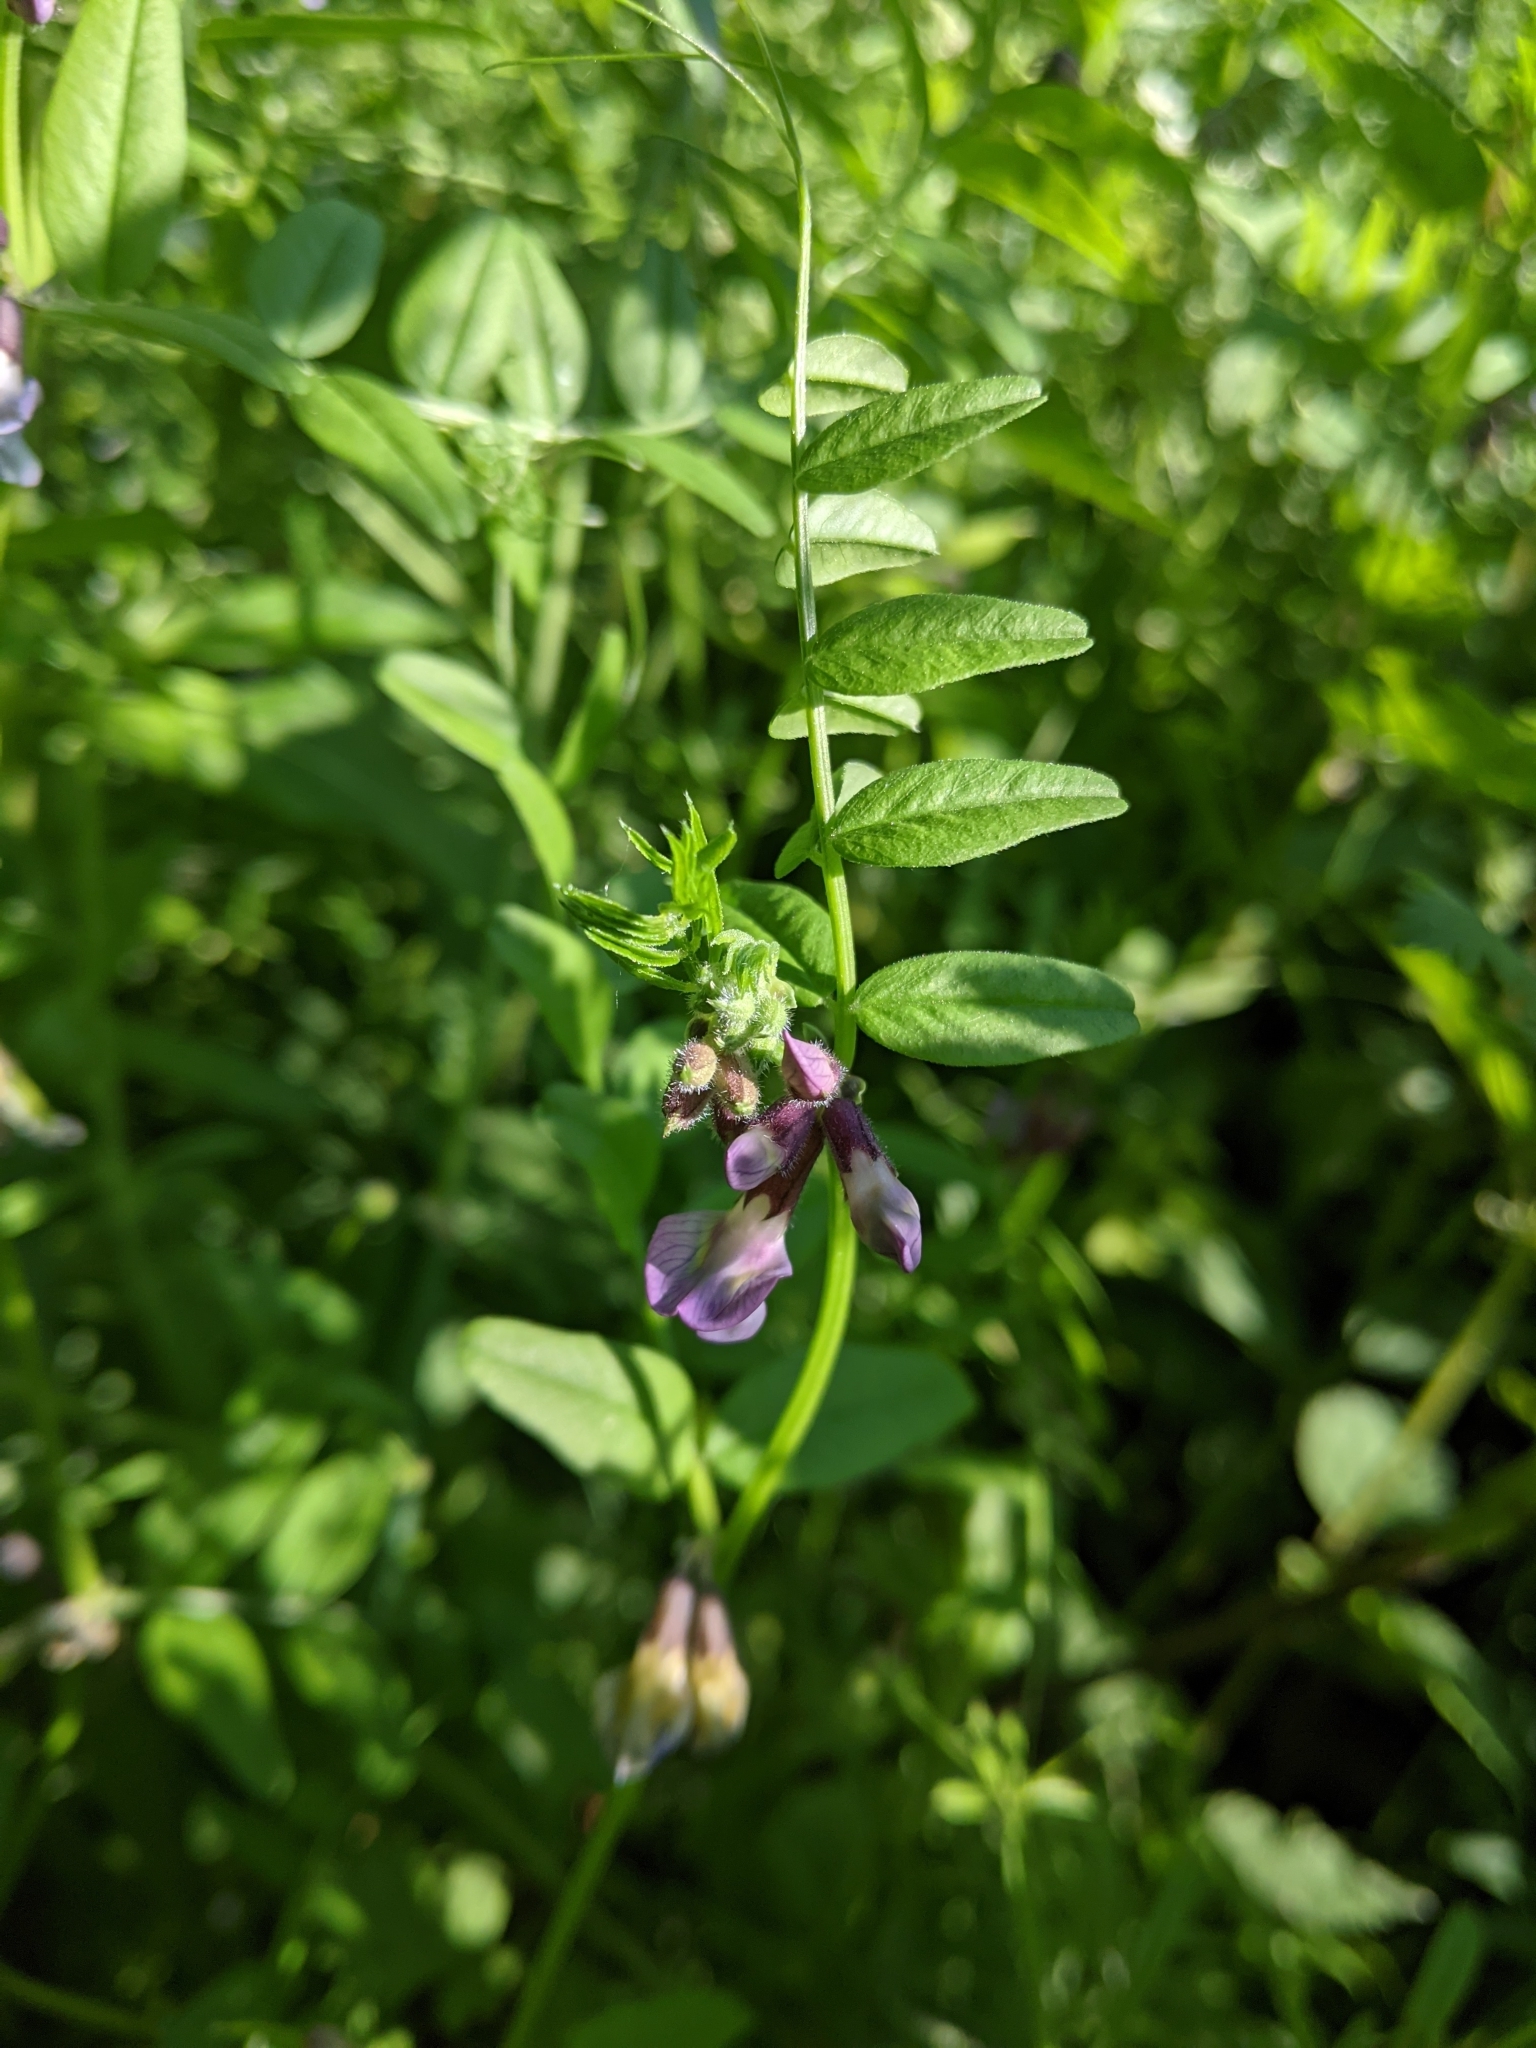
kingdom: Plantae
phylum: Tracheophyta
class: Magnoliopsida
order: Fabales
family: Fabaceae
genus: Vicia
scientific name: Vicia sepium
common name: Bush vetch
